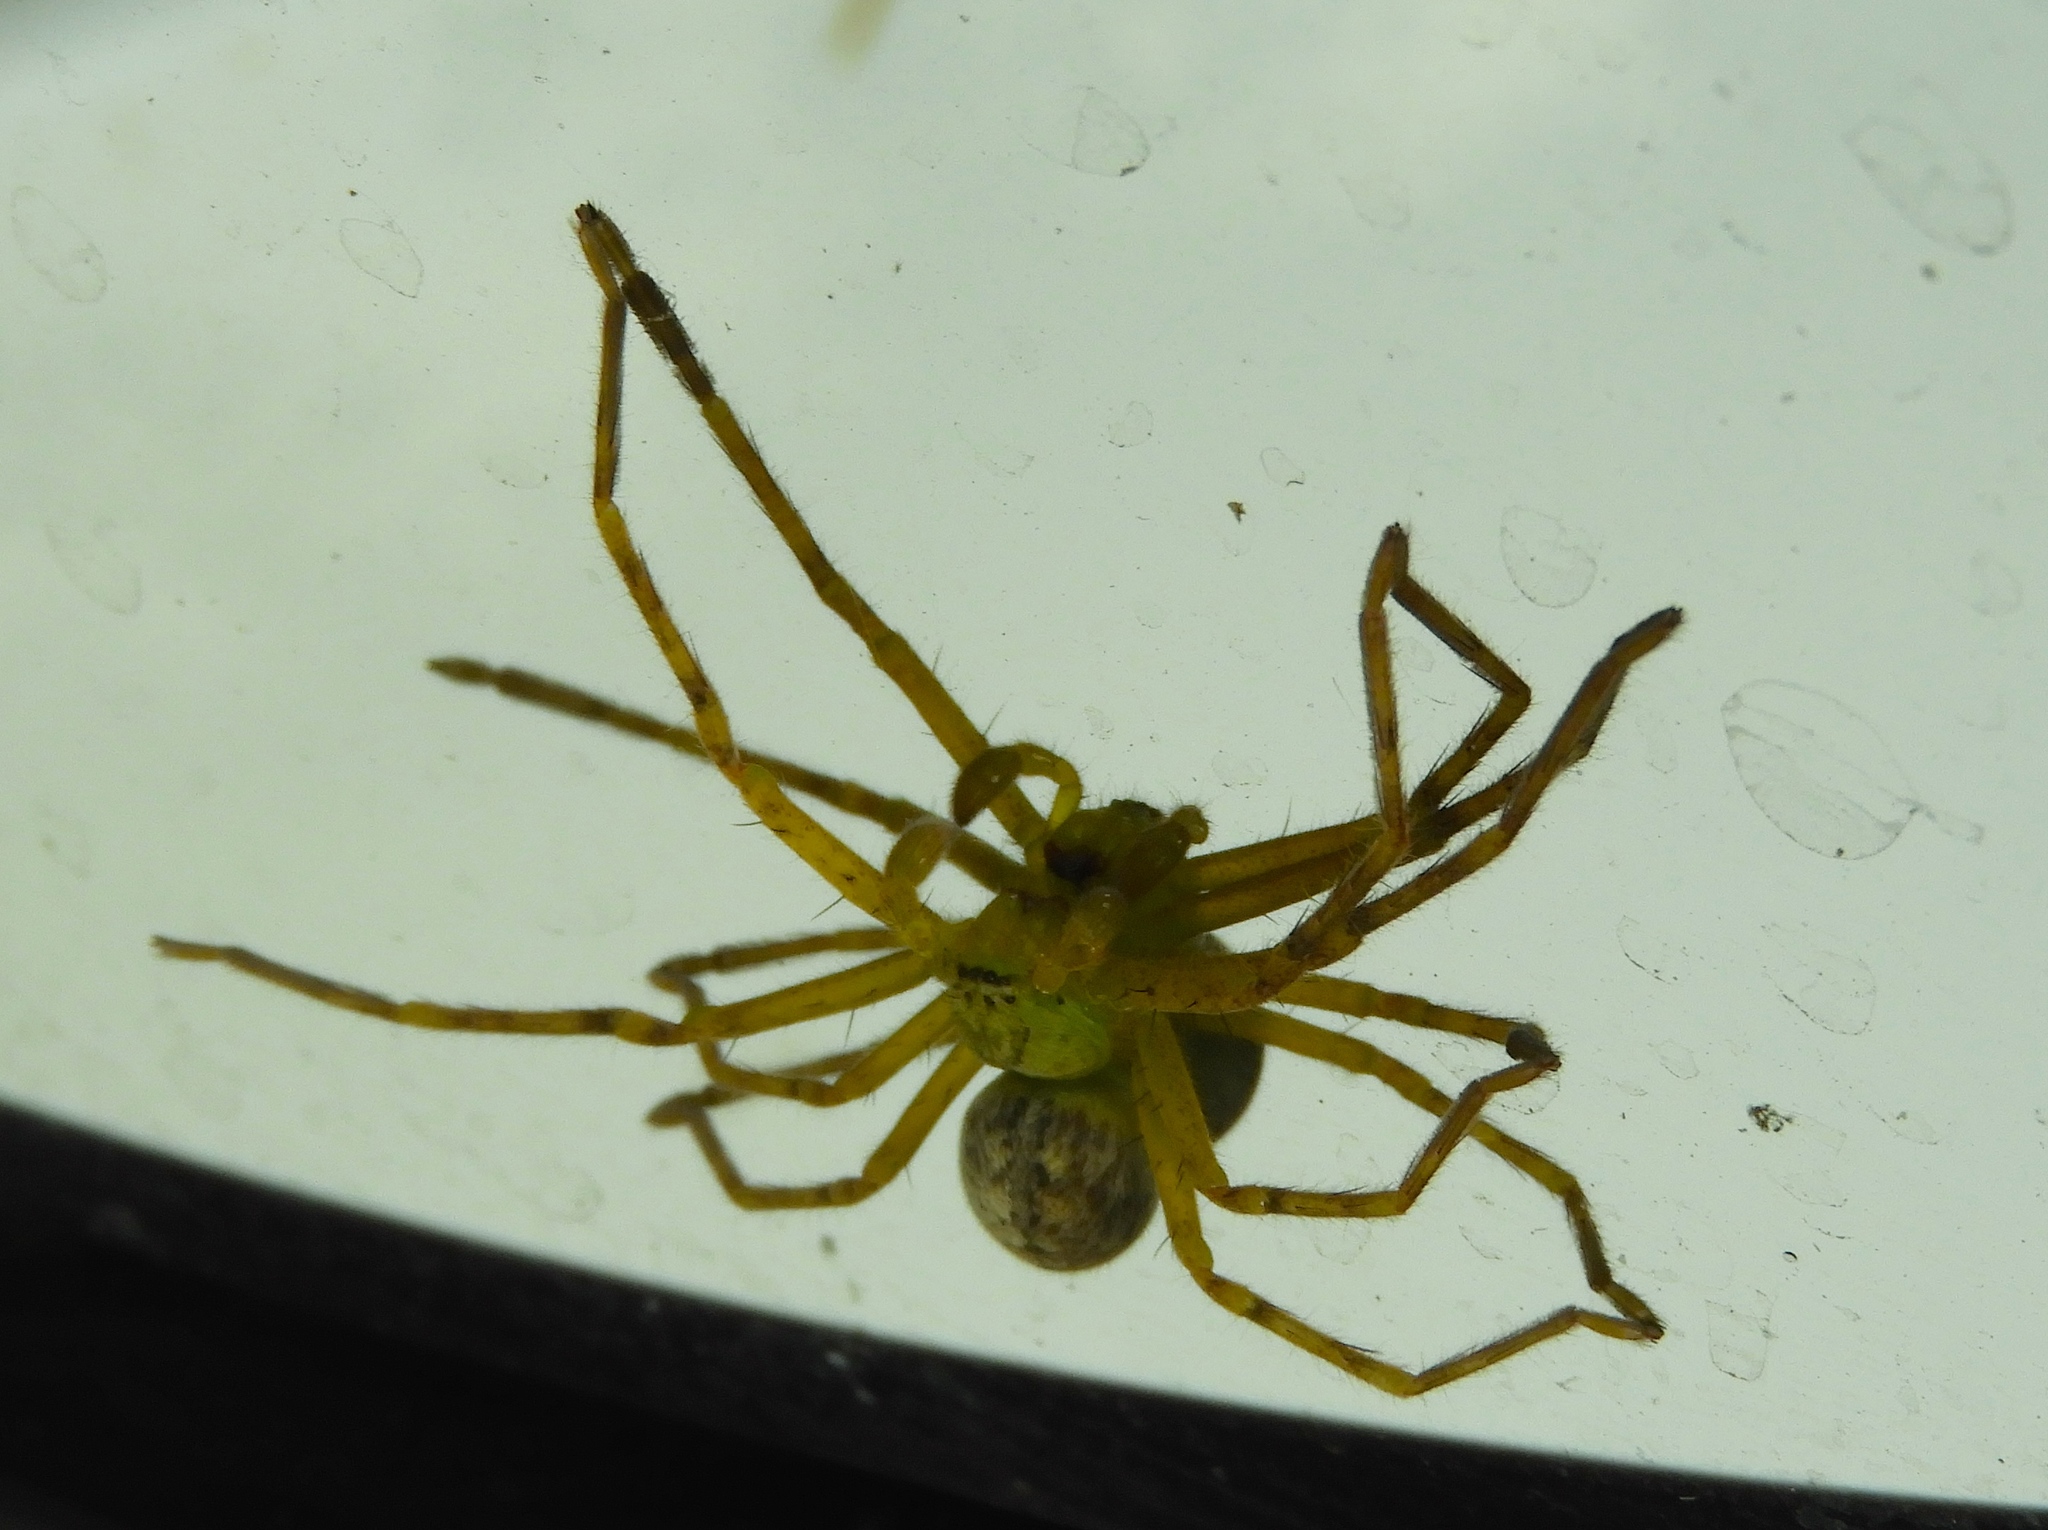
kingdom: Animalia
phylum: Arthropoda
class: Arachnida
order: Araneae
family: Sparassidae
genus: Curicaberis
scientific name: Curicaberis culiacan
